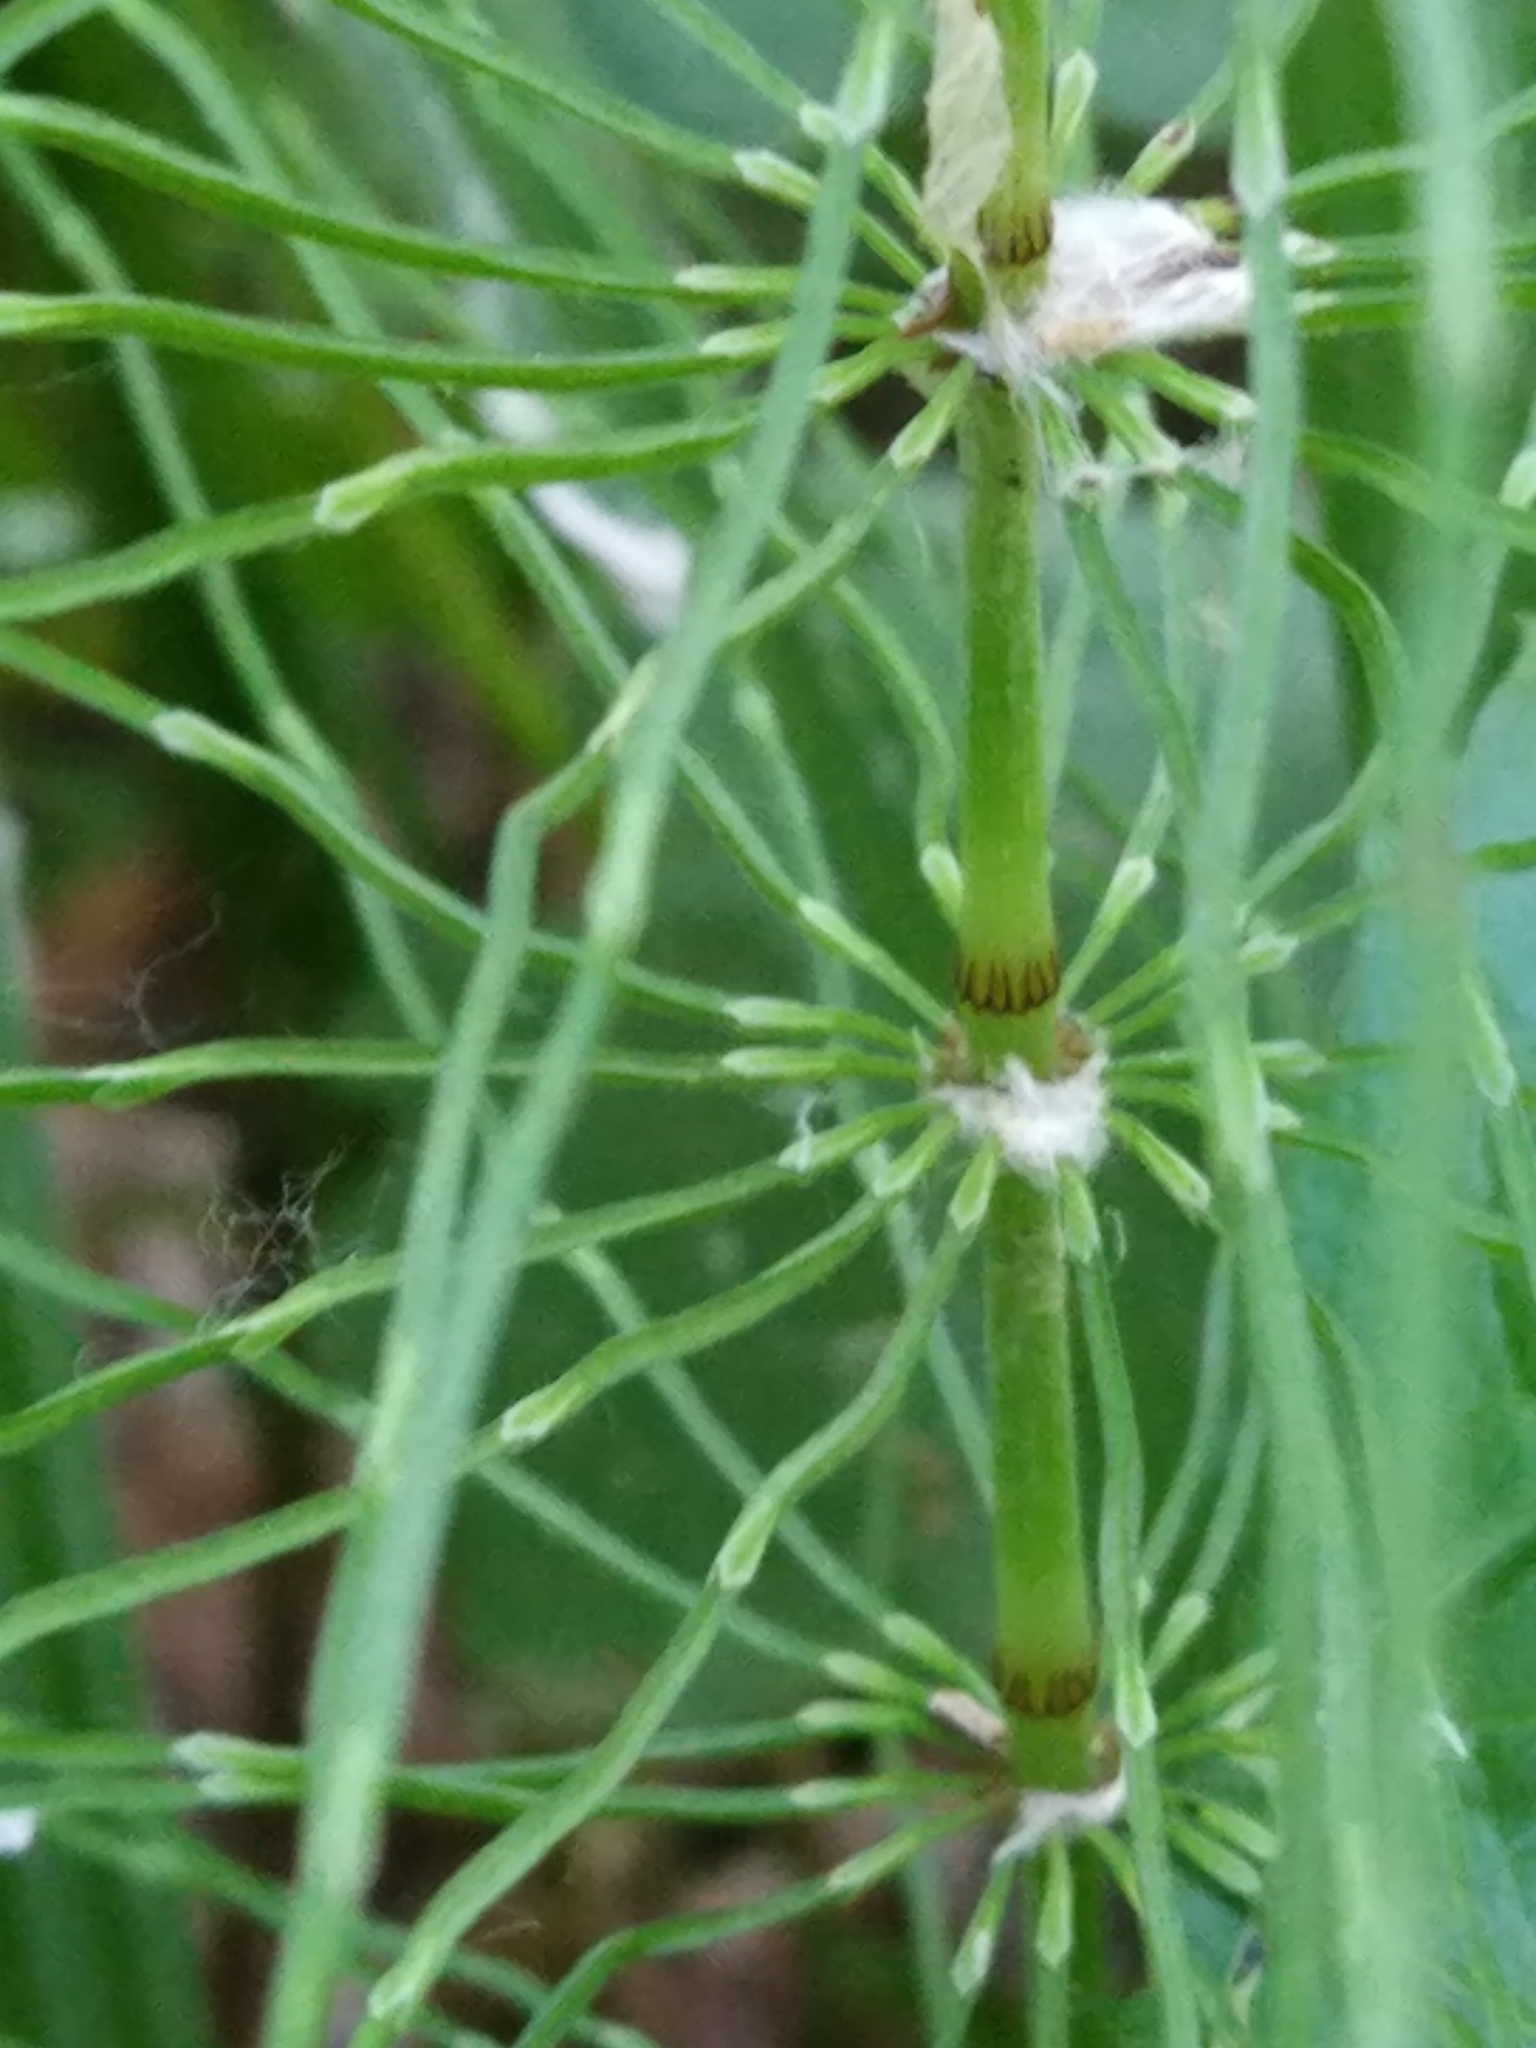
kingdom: Plantae
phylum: Tracheophyta
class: Polypodiopsida
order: Equisetales
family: Equisetaceae
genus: Equisetum
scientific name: Equisetum pratense
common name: Meadow horsetail
